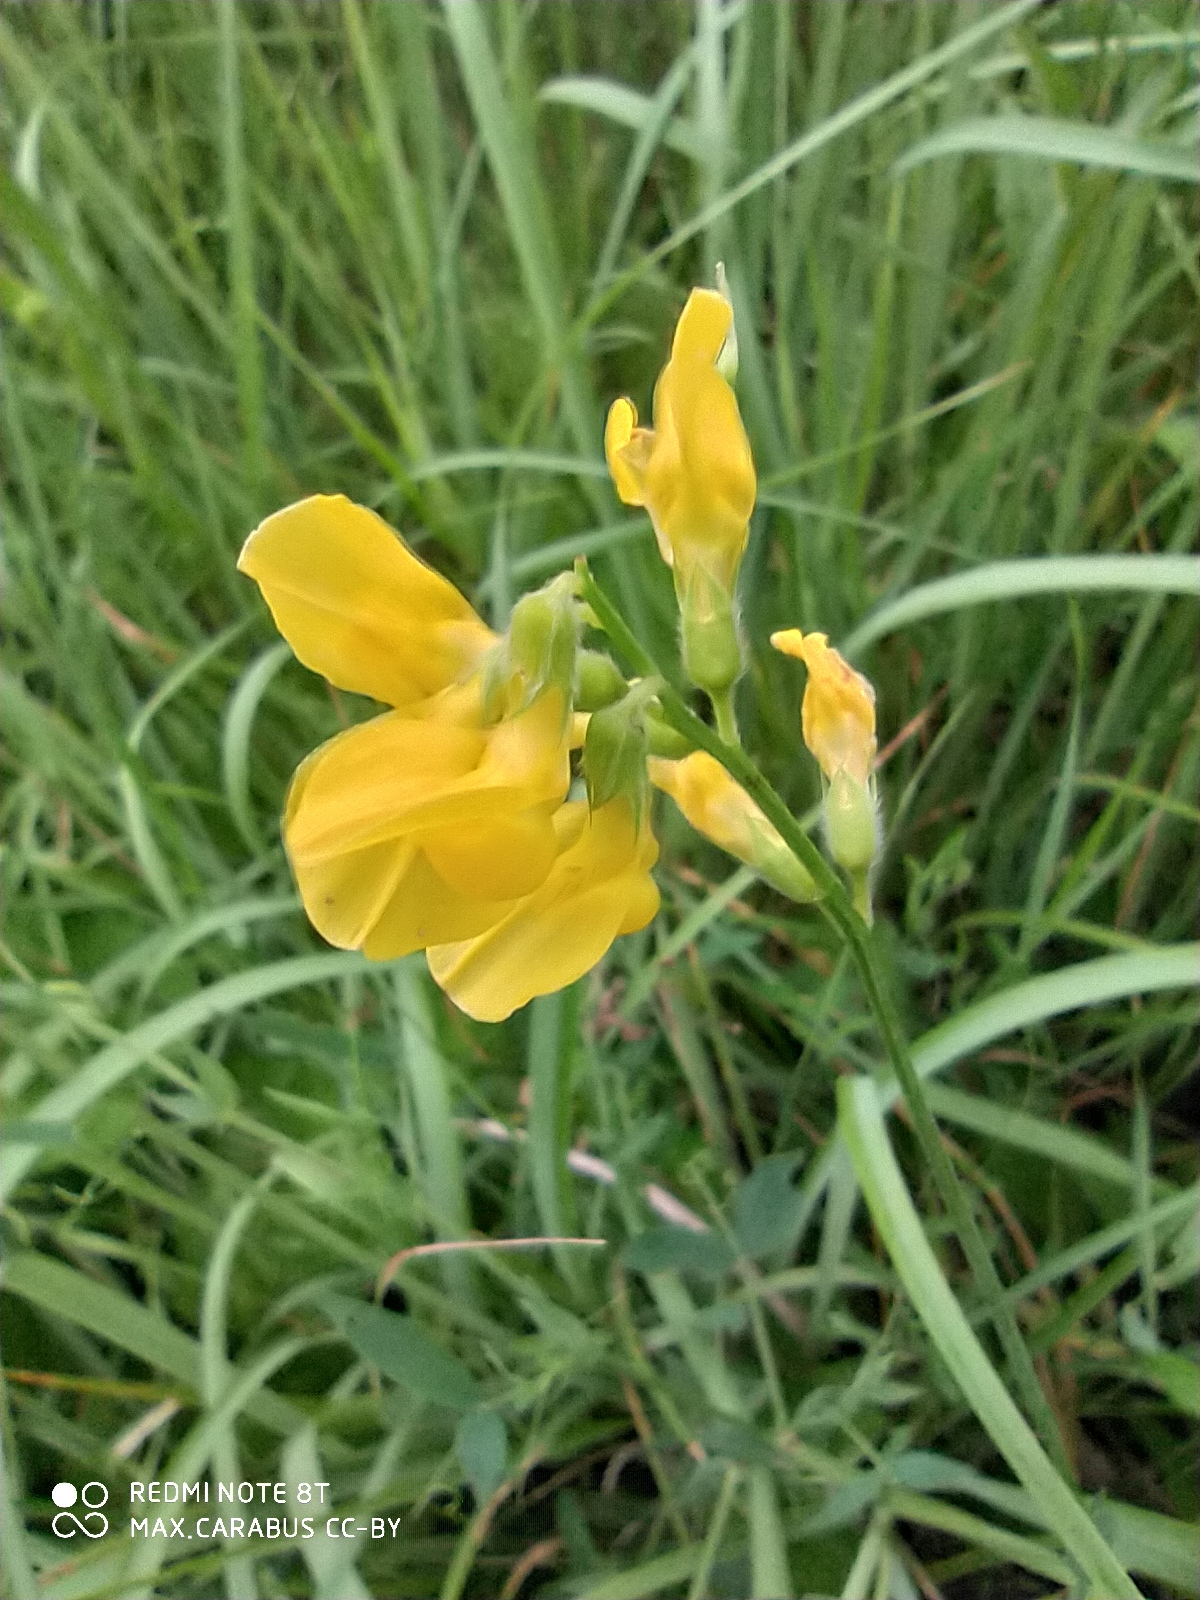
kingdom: Plantae
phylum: Tracheophyta
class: Magnoliopsida
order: Fabales
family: Fabaceae
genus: Lathyrus
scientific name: Lathyrus pratensis
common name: Meadow vetchling
